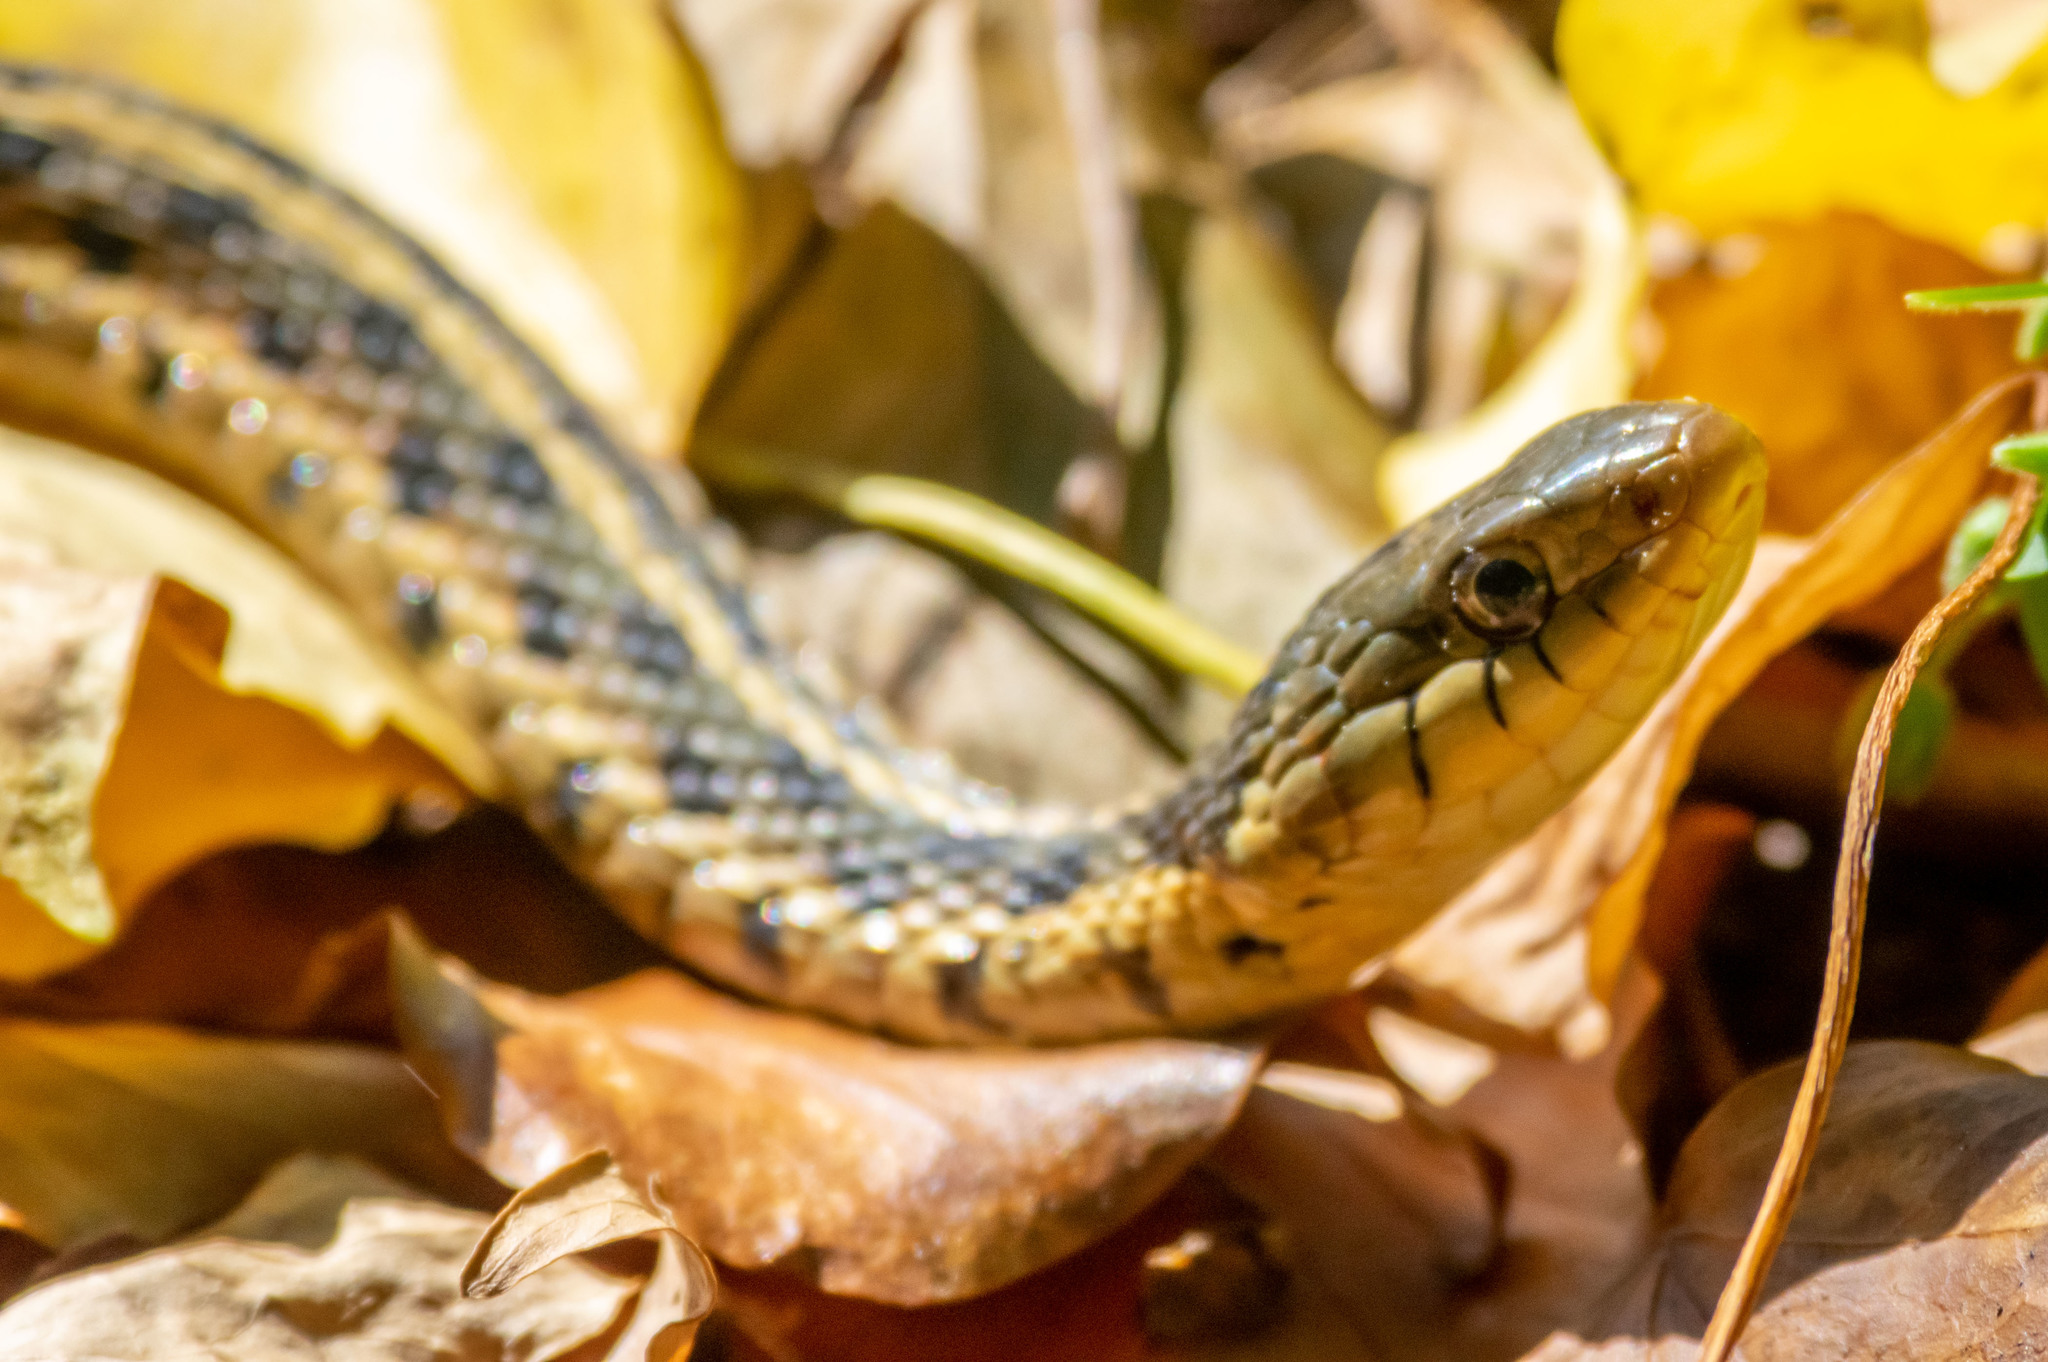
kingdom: Animalia
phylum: Chordata
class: Squamata
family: Colubridae
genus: Thamnophis
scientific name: Thamnophis sirtalis
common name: Common garter snake
